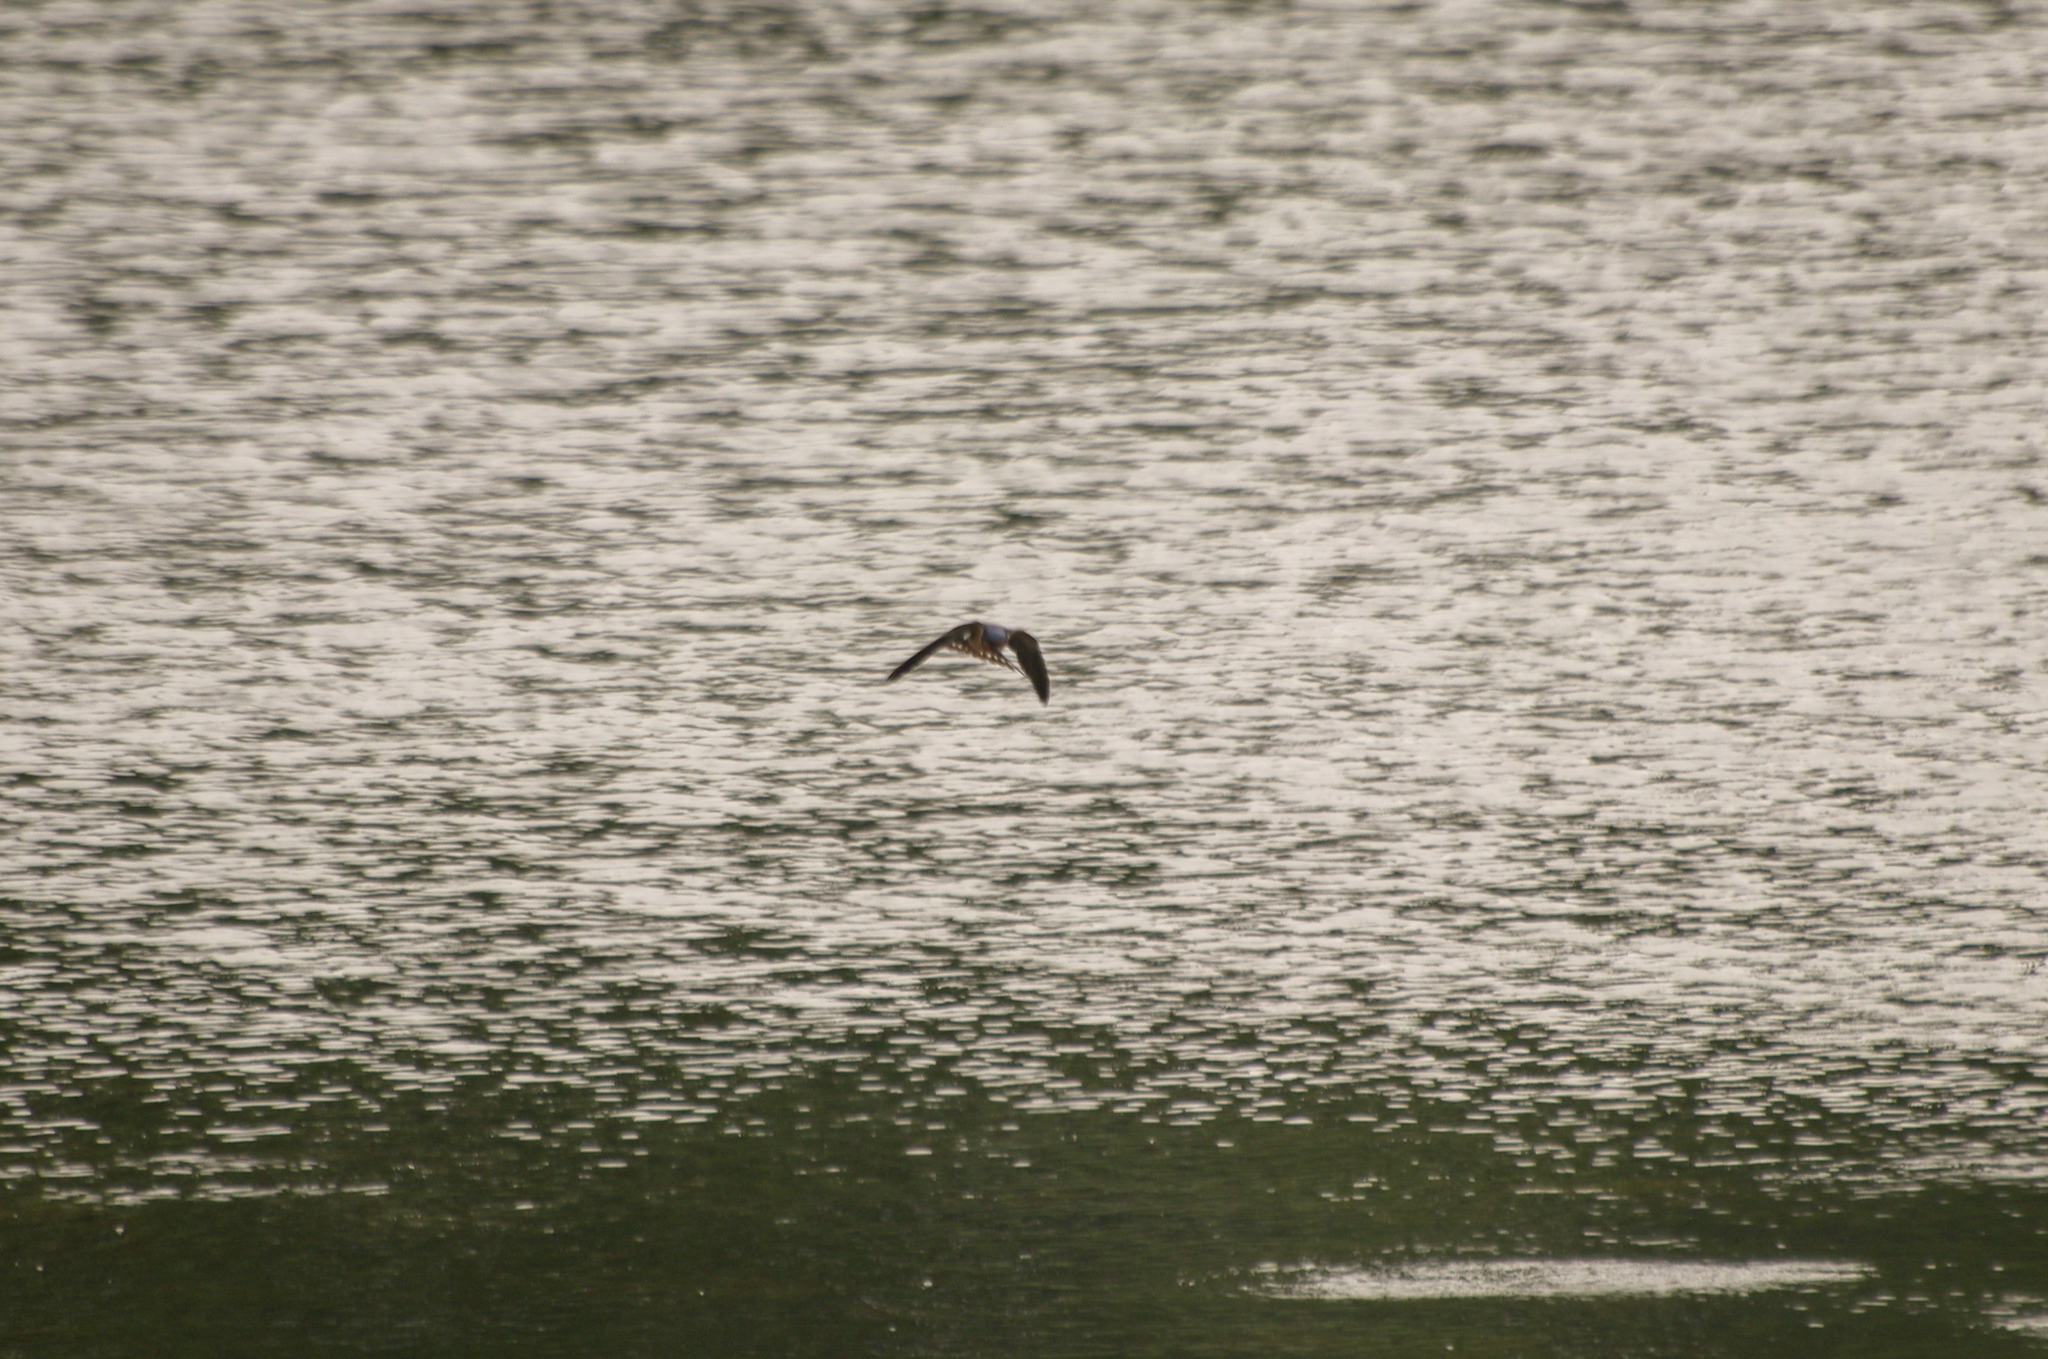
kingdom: Animalia
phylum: Chordata
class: Aves
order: Passeriformes
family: Hirundinidae
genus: Hirundo
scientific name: Hirundo rustica
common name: Barn swallow
